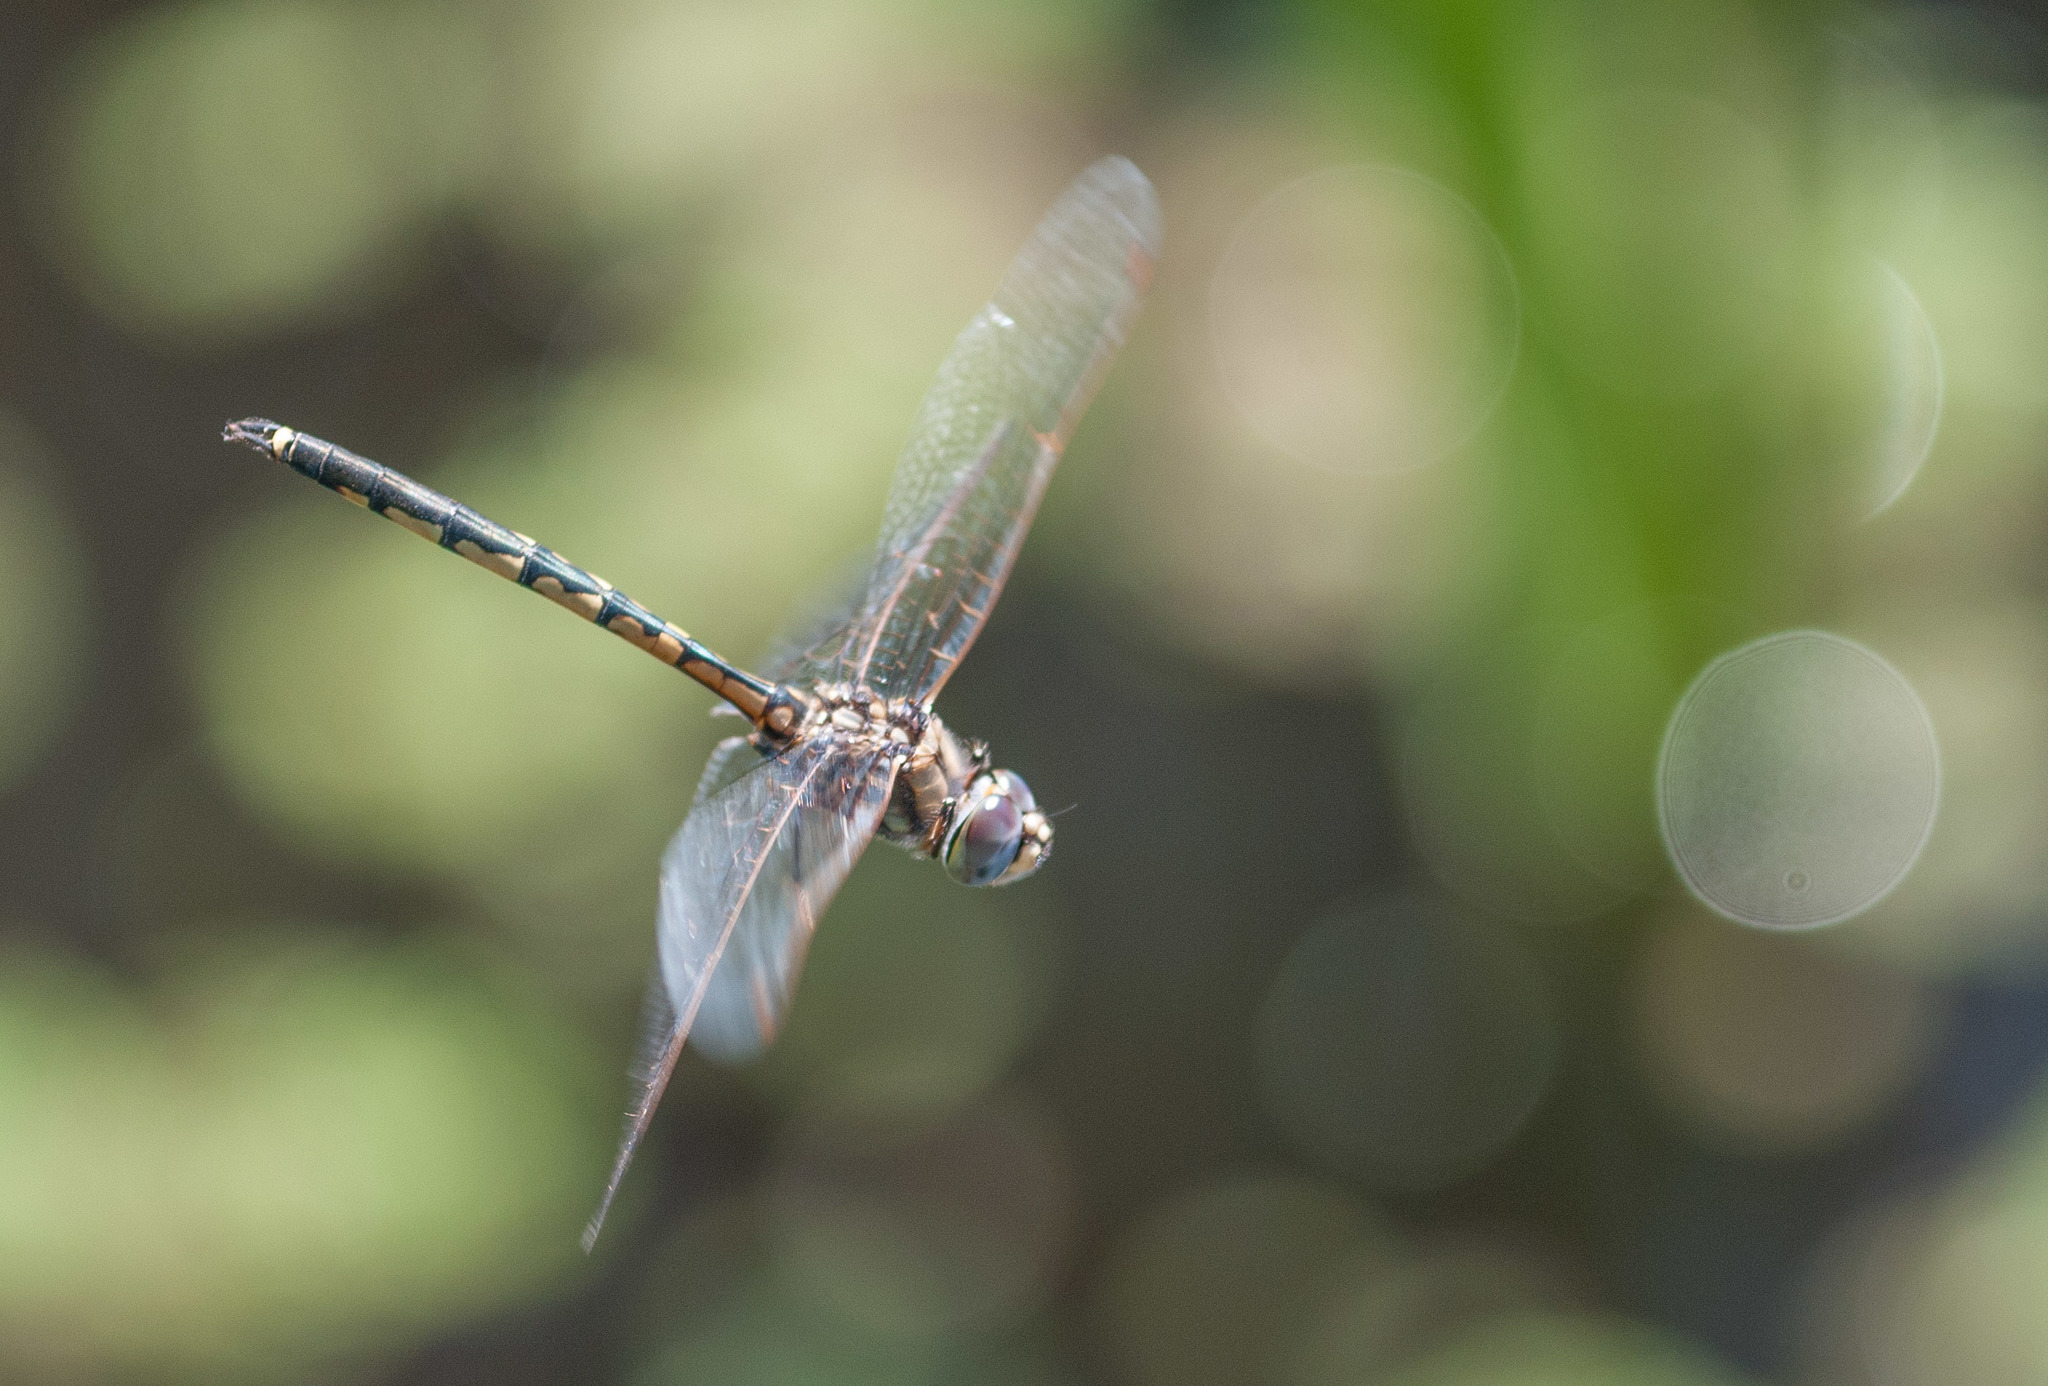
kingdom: Animalia
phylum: Arthropoda
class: Insecta
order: Odonata
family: Corduliidae
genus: Hemicordulia
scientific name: Hemicordulia tau
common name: Tau emerald
